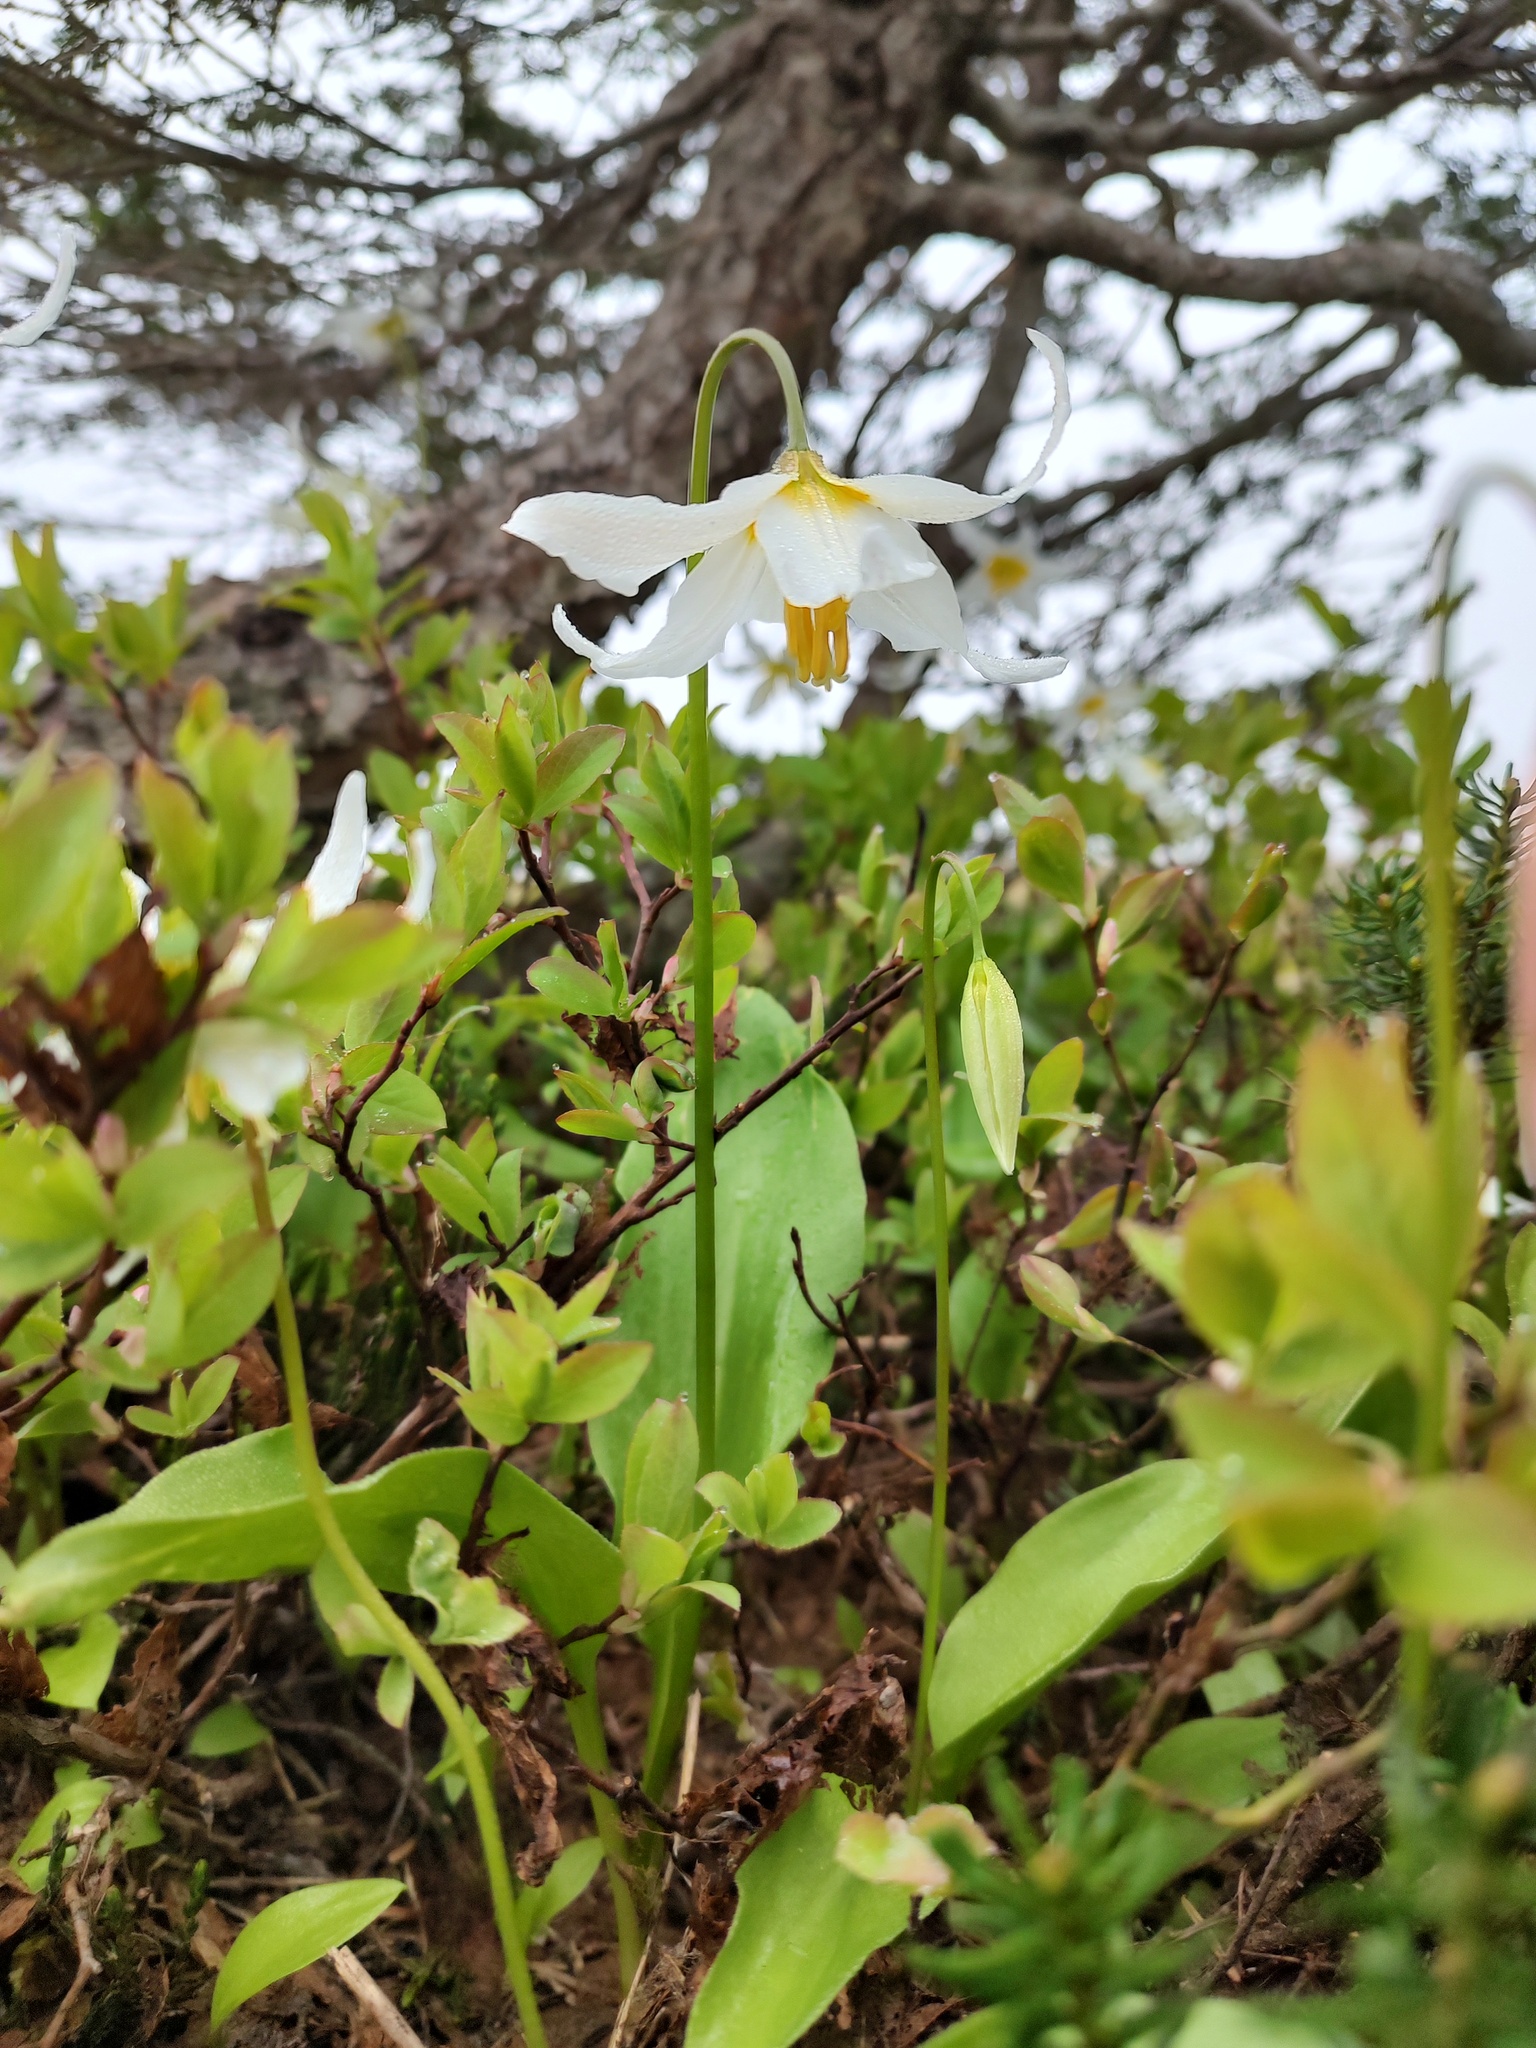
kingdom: Plantae
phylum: Tracheophyta
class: Liliopsida
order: Liliales
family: Liliaceae
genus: Erythronium
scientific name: Erythronium montanum
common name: Avalanche lily
